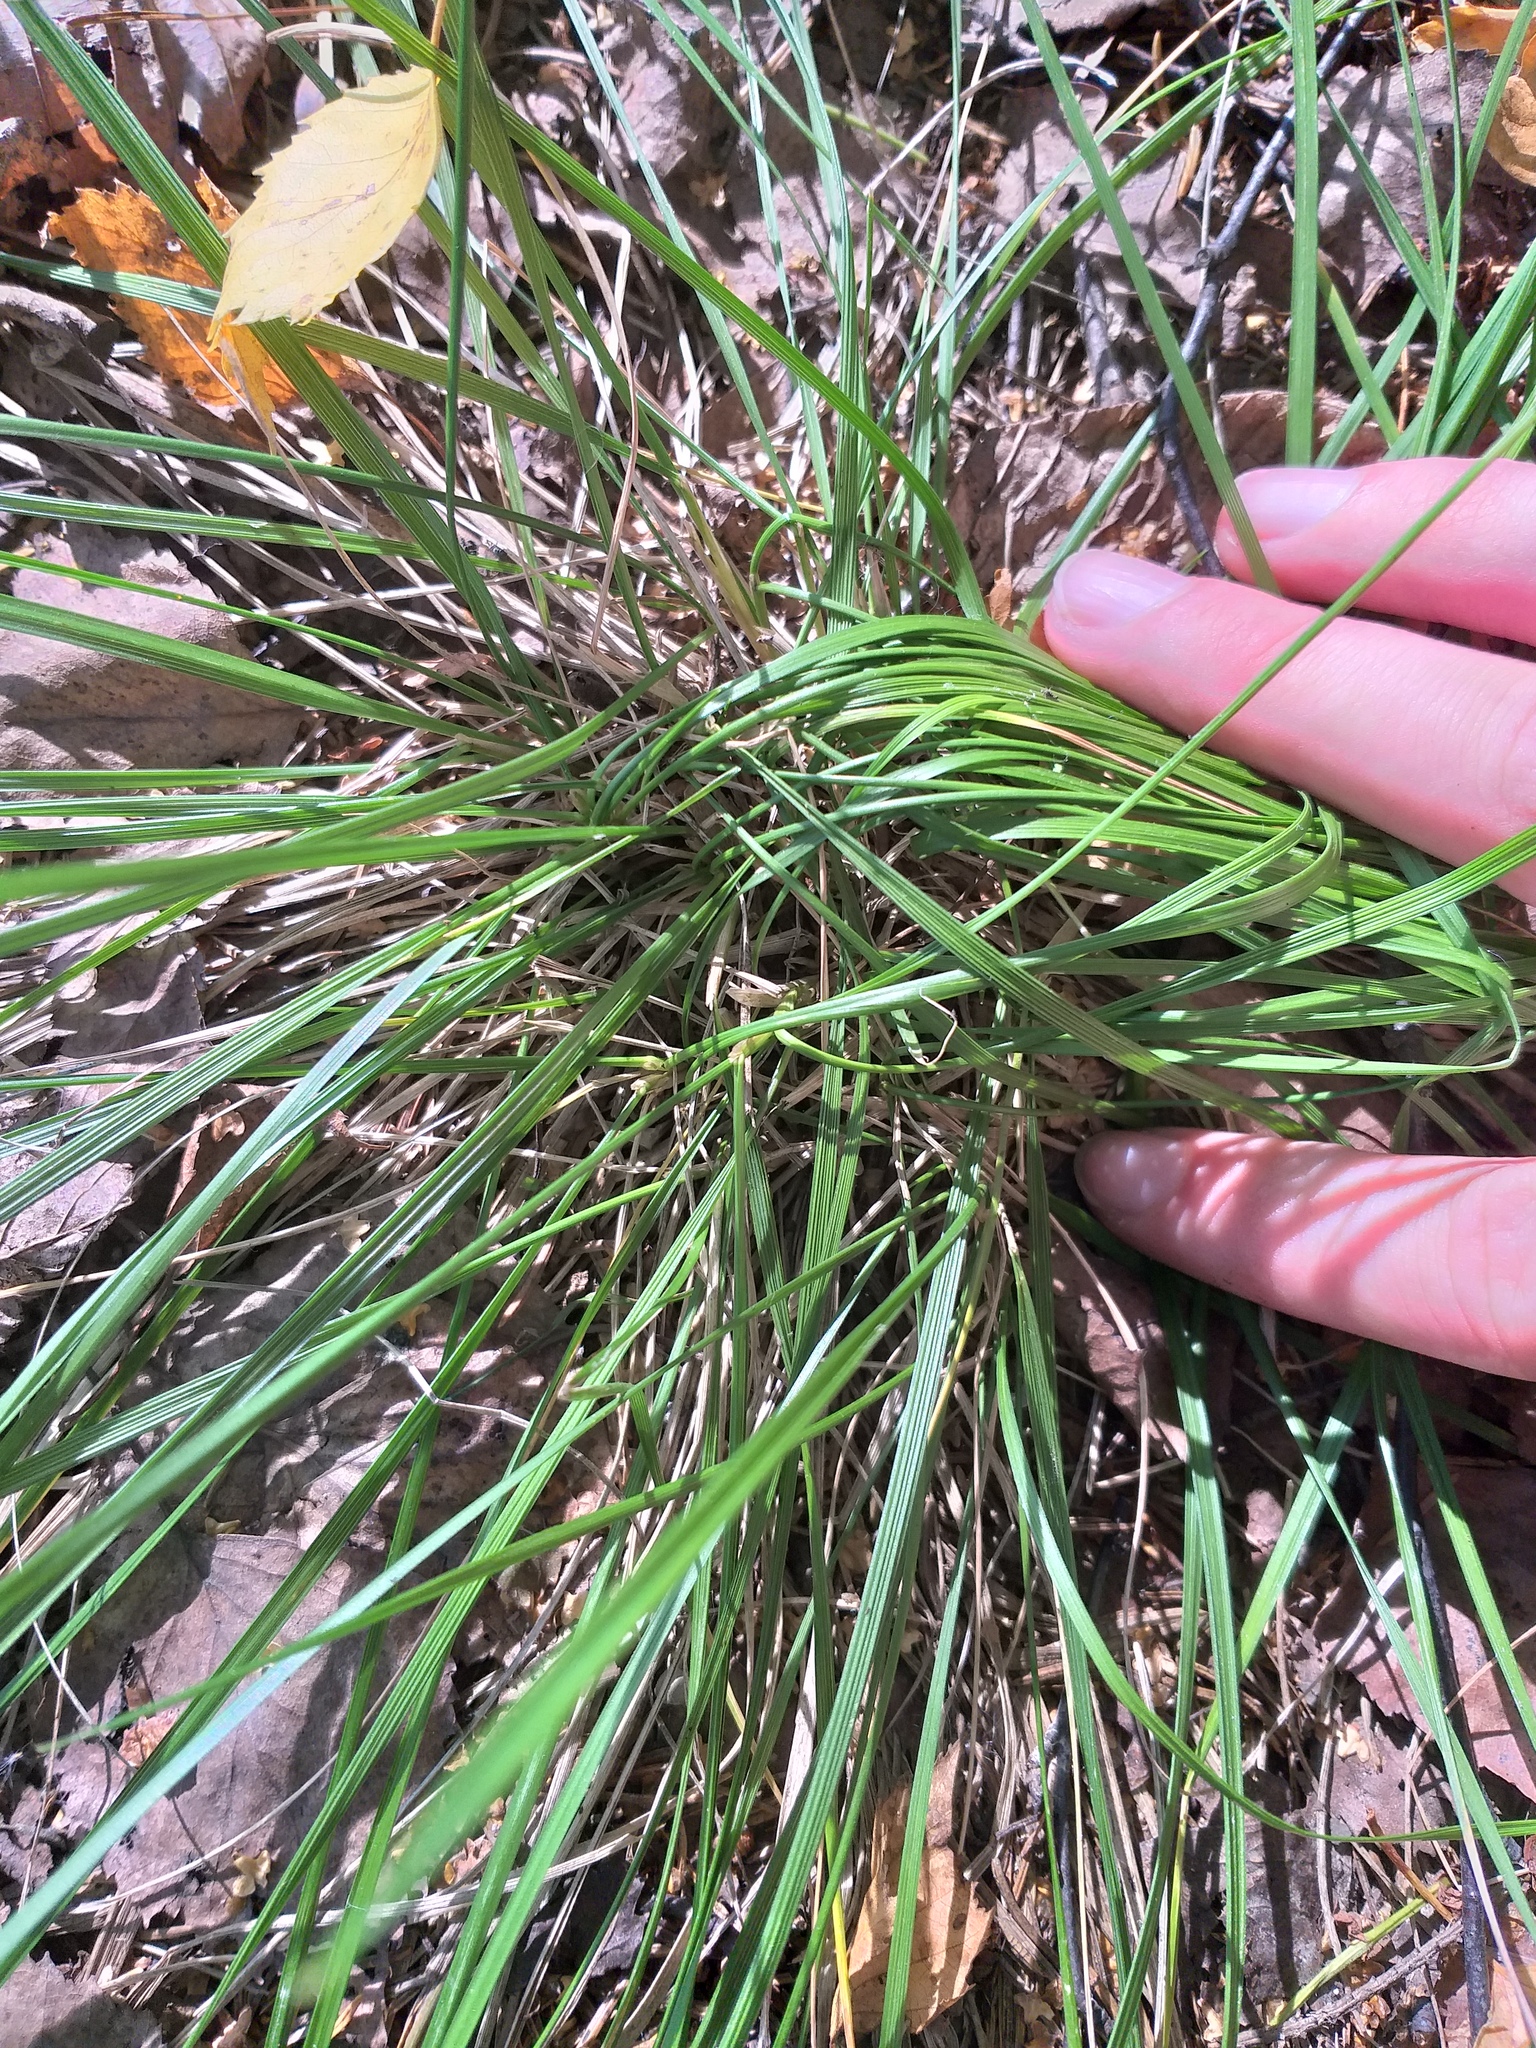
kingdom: Plantae
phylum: Tracheophyta
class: Liliopsida
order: Poales
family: Poaceae
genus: Deschampsia
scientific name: Deschampsia cespitosa
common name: Tufted hair-grass
